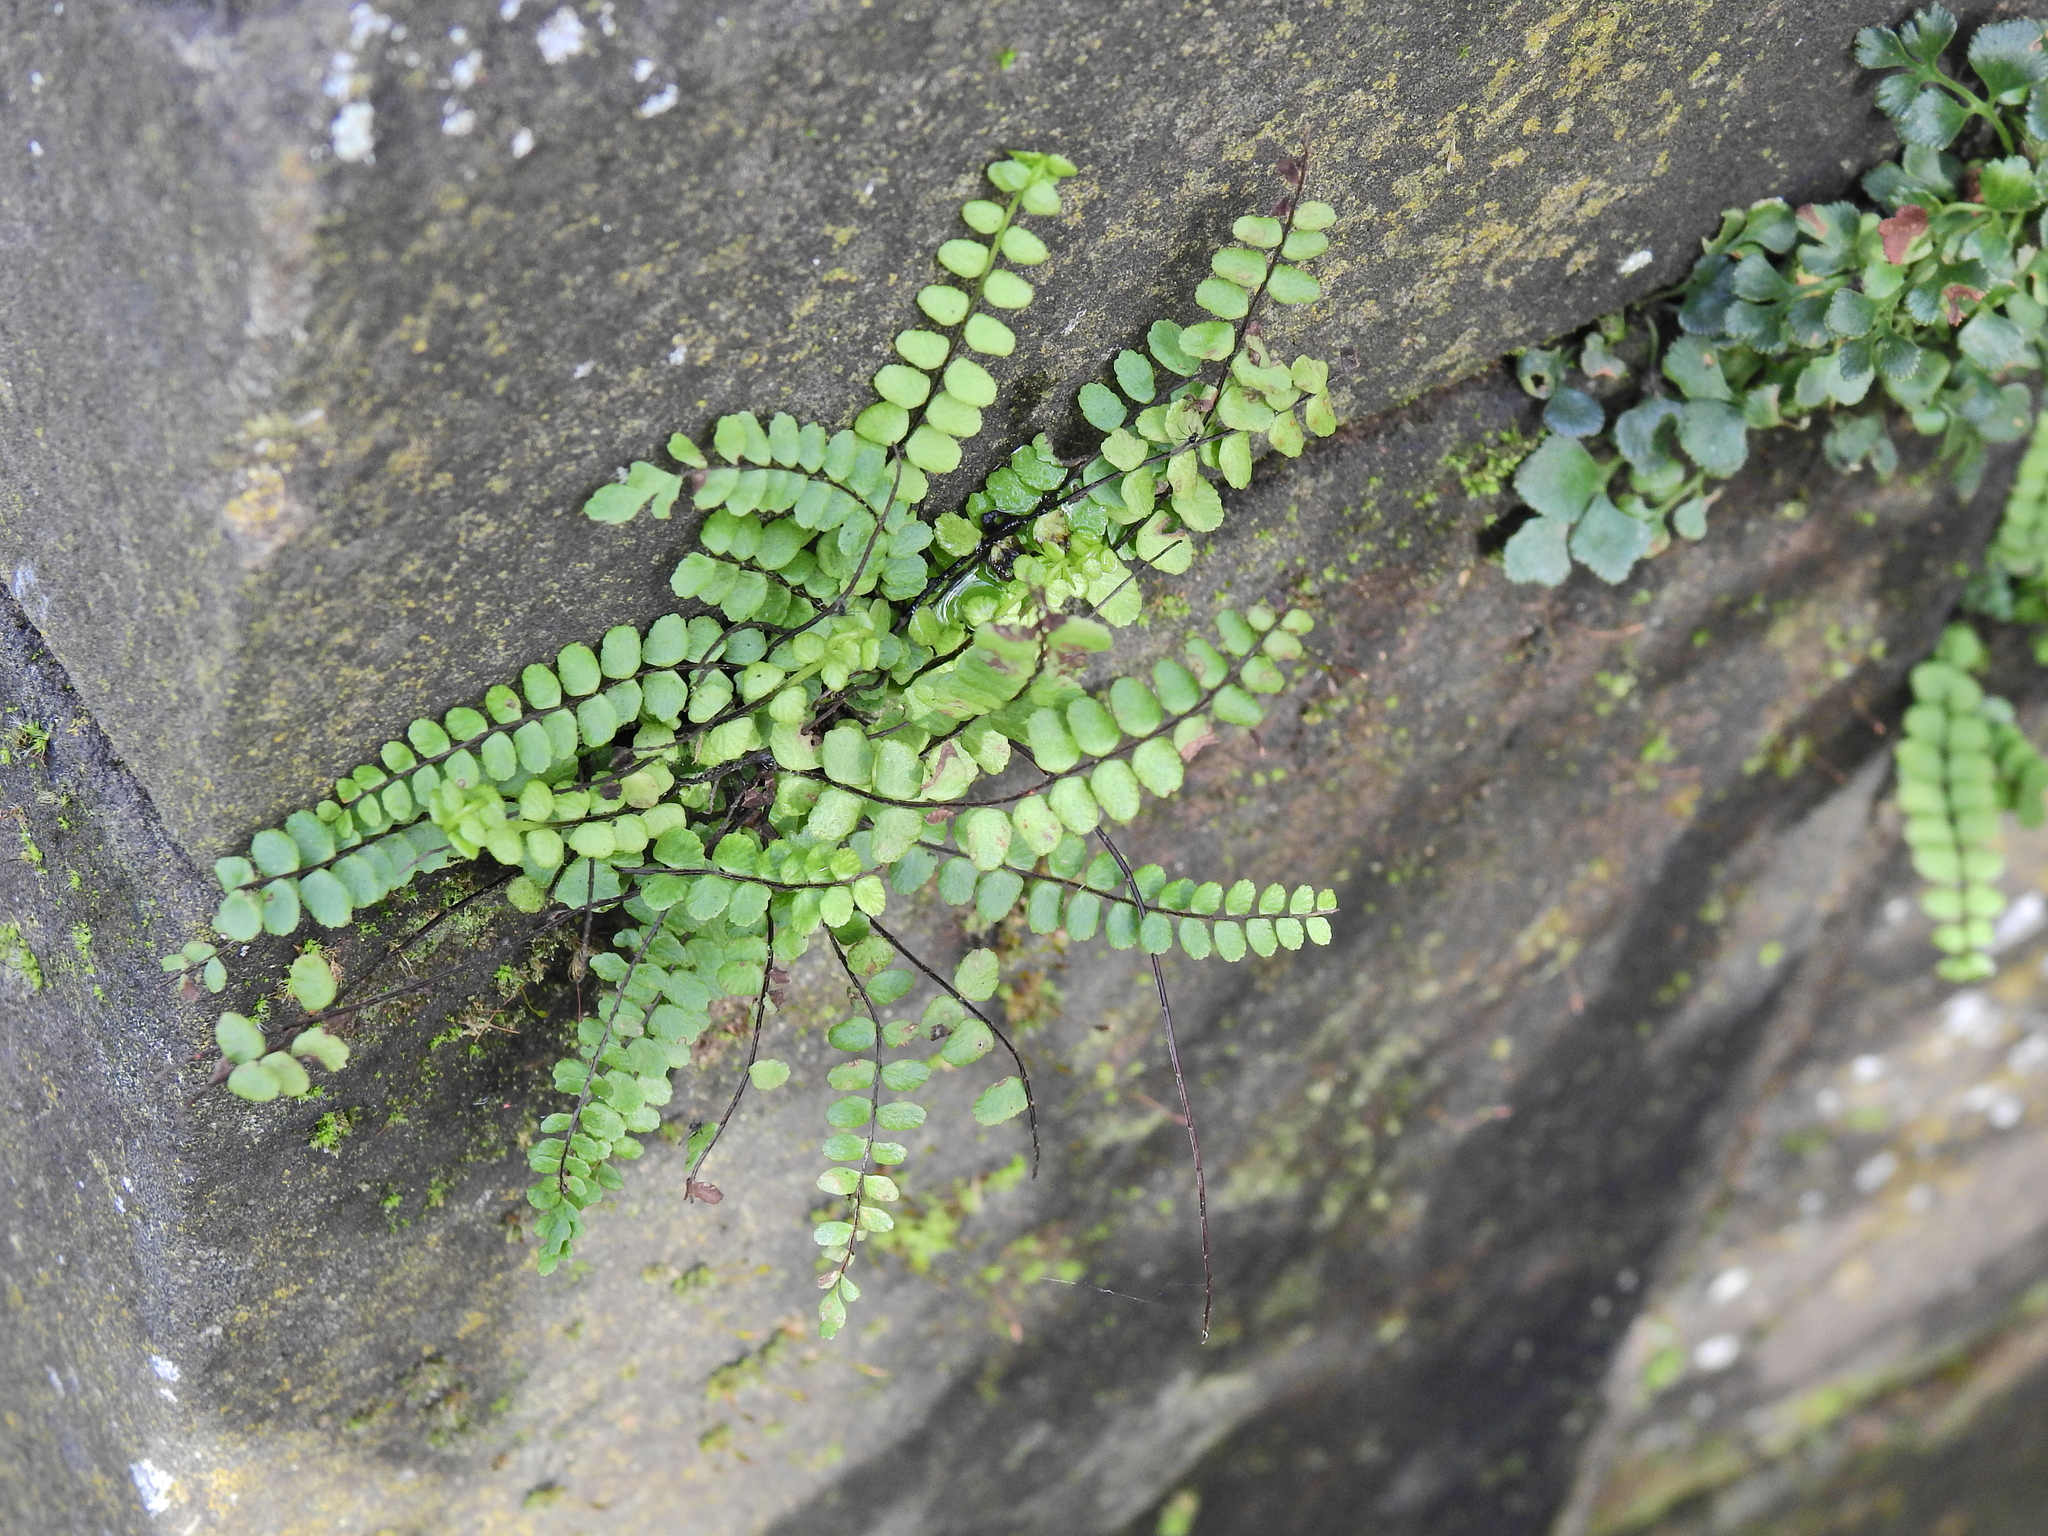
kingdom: Plantae
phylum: Tracheophyta
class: Polypodiopsida
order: Polypodiales
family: Aspleniaceae
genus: Asplenium
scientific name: Asplenium trichomanes
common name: Maidenhair spleenwort
